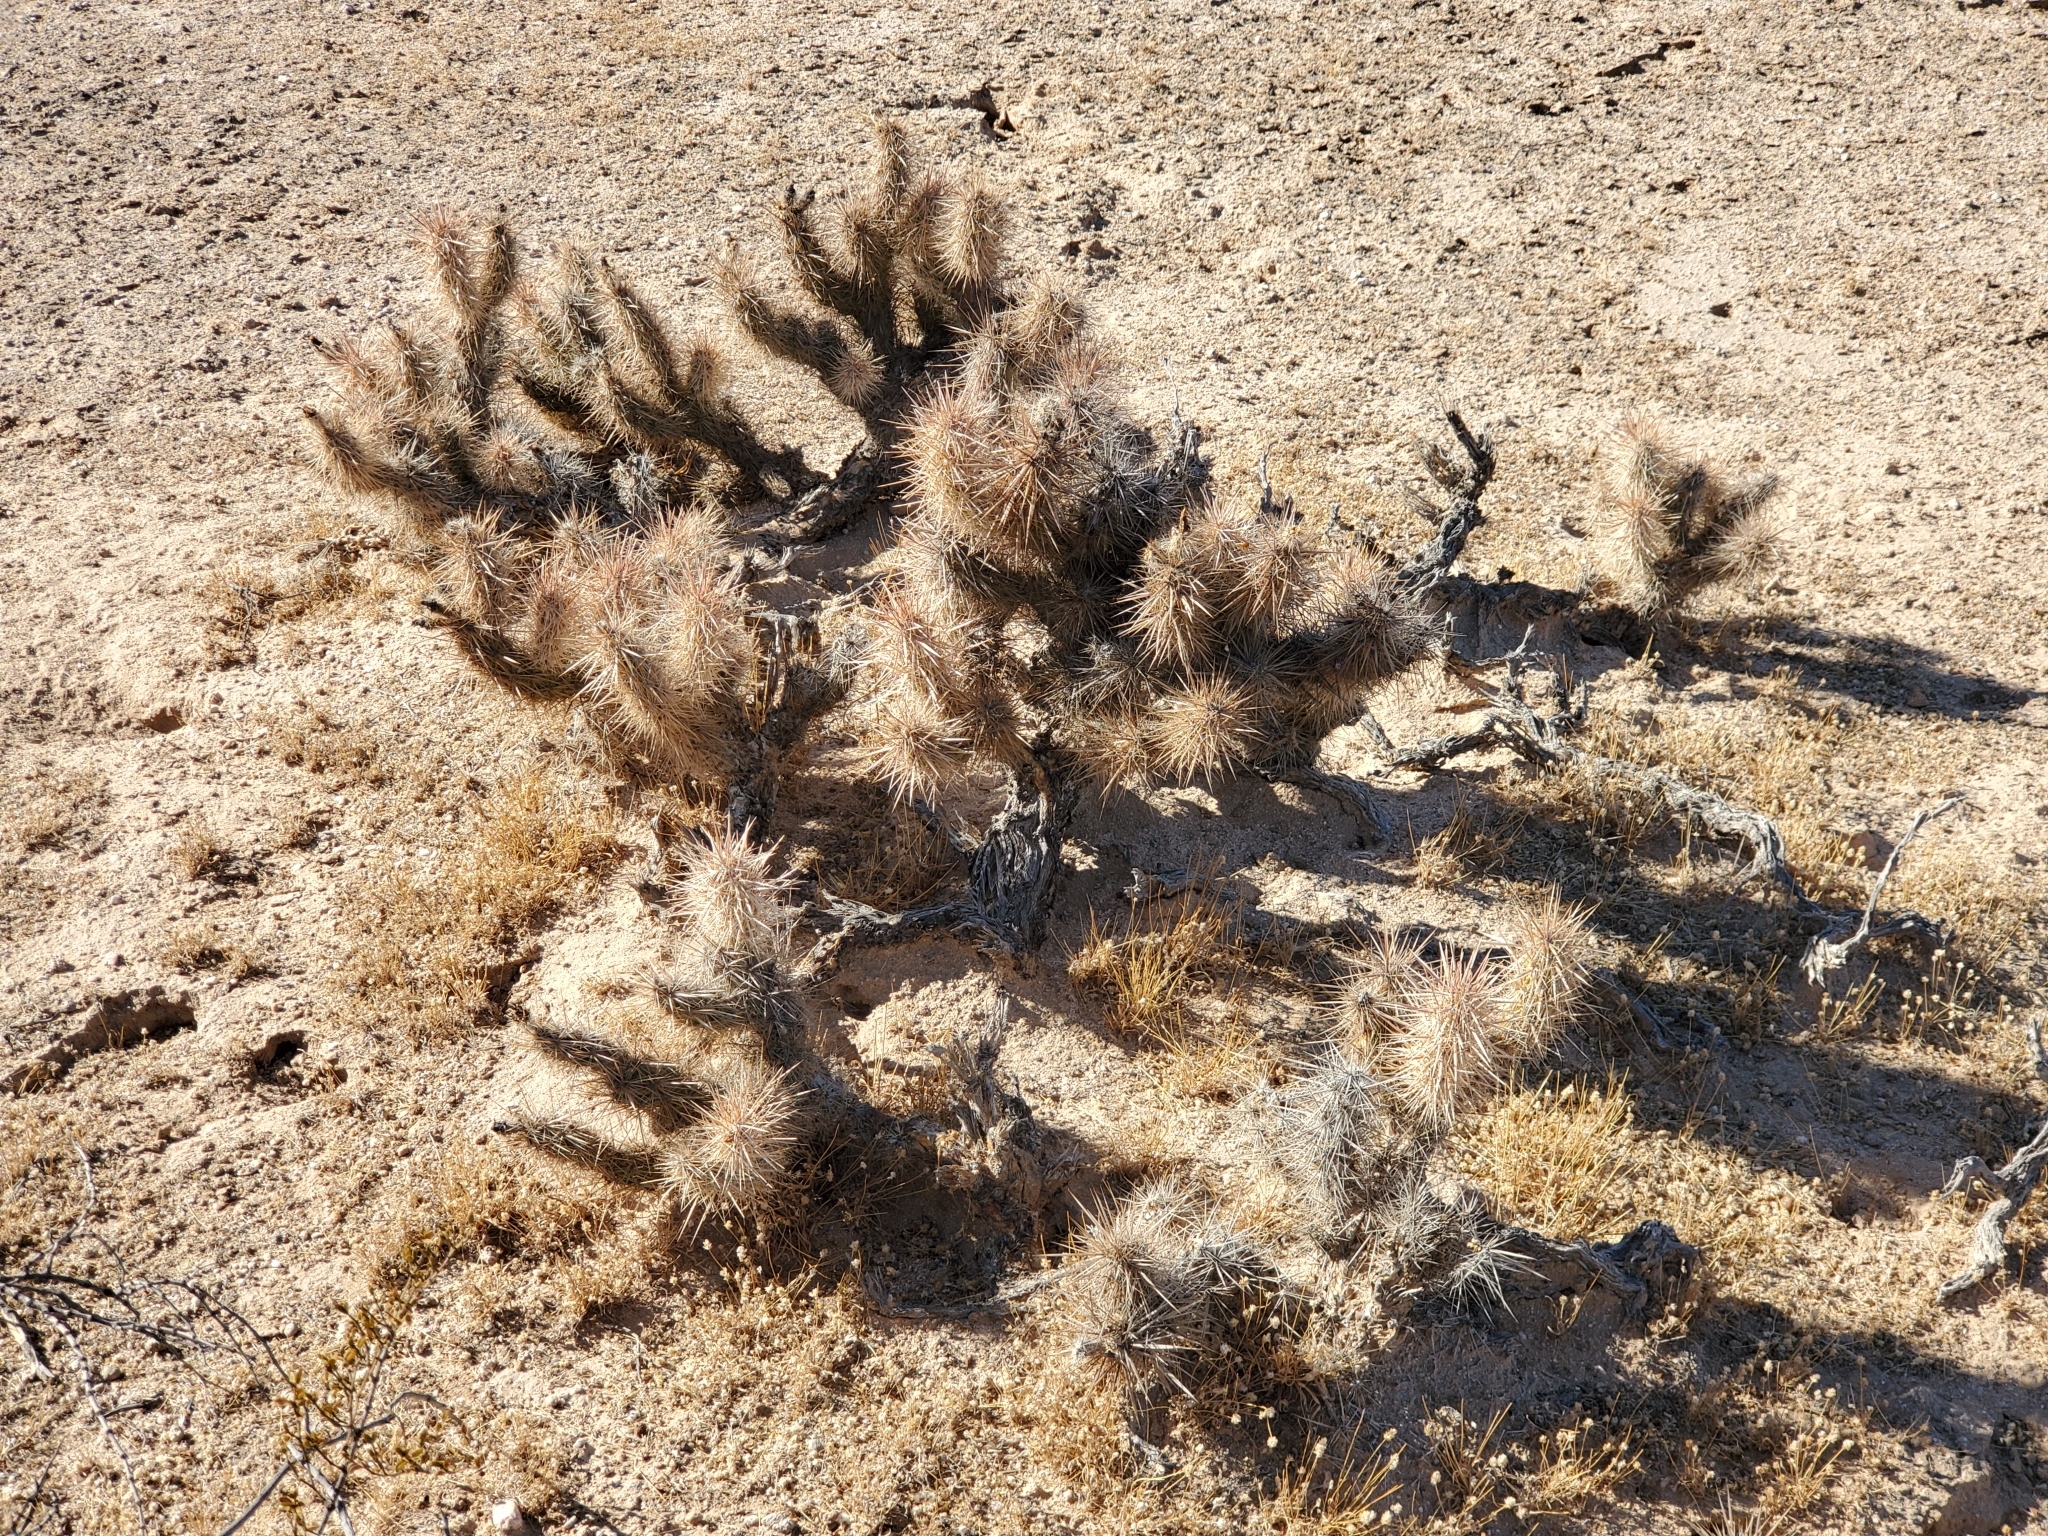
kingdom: Plantae
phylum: Tracheophyta
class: Magnoliopsida
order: Caryophyllales
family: Cactaceae
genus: Grusonia
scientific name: Grusonia kunzei
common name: Wright's club cholla
